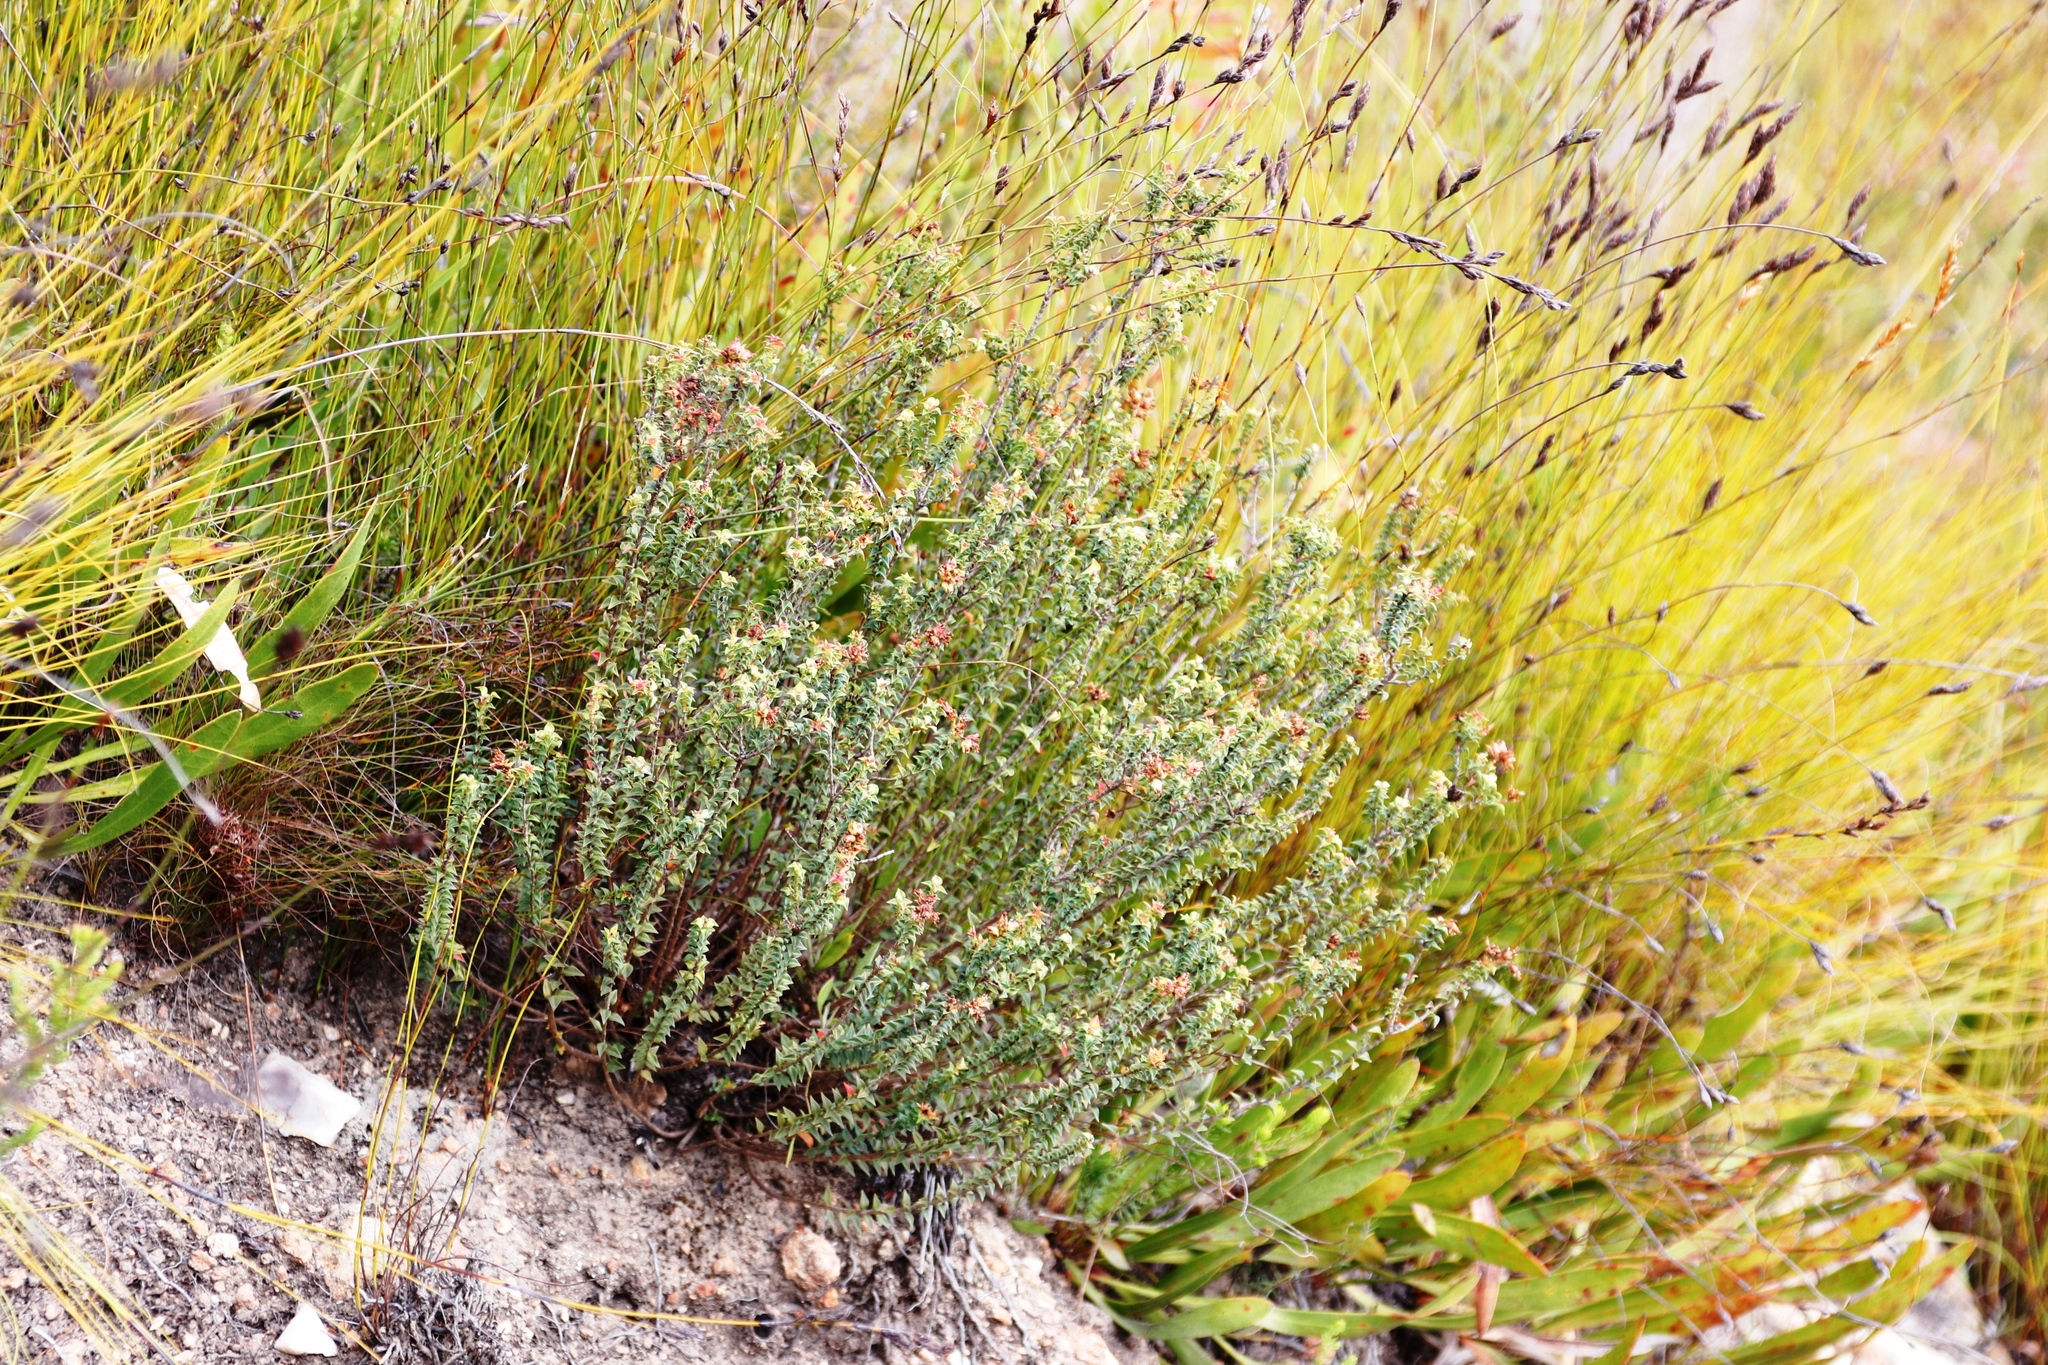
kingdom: Plantae
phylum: Tracheophyta
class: Magnoliopsida
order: Myrtales
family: Penaeaceae
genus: Penaea
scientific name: Penaea mucronata
